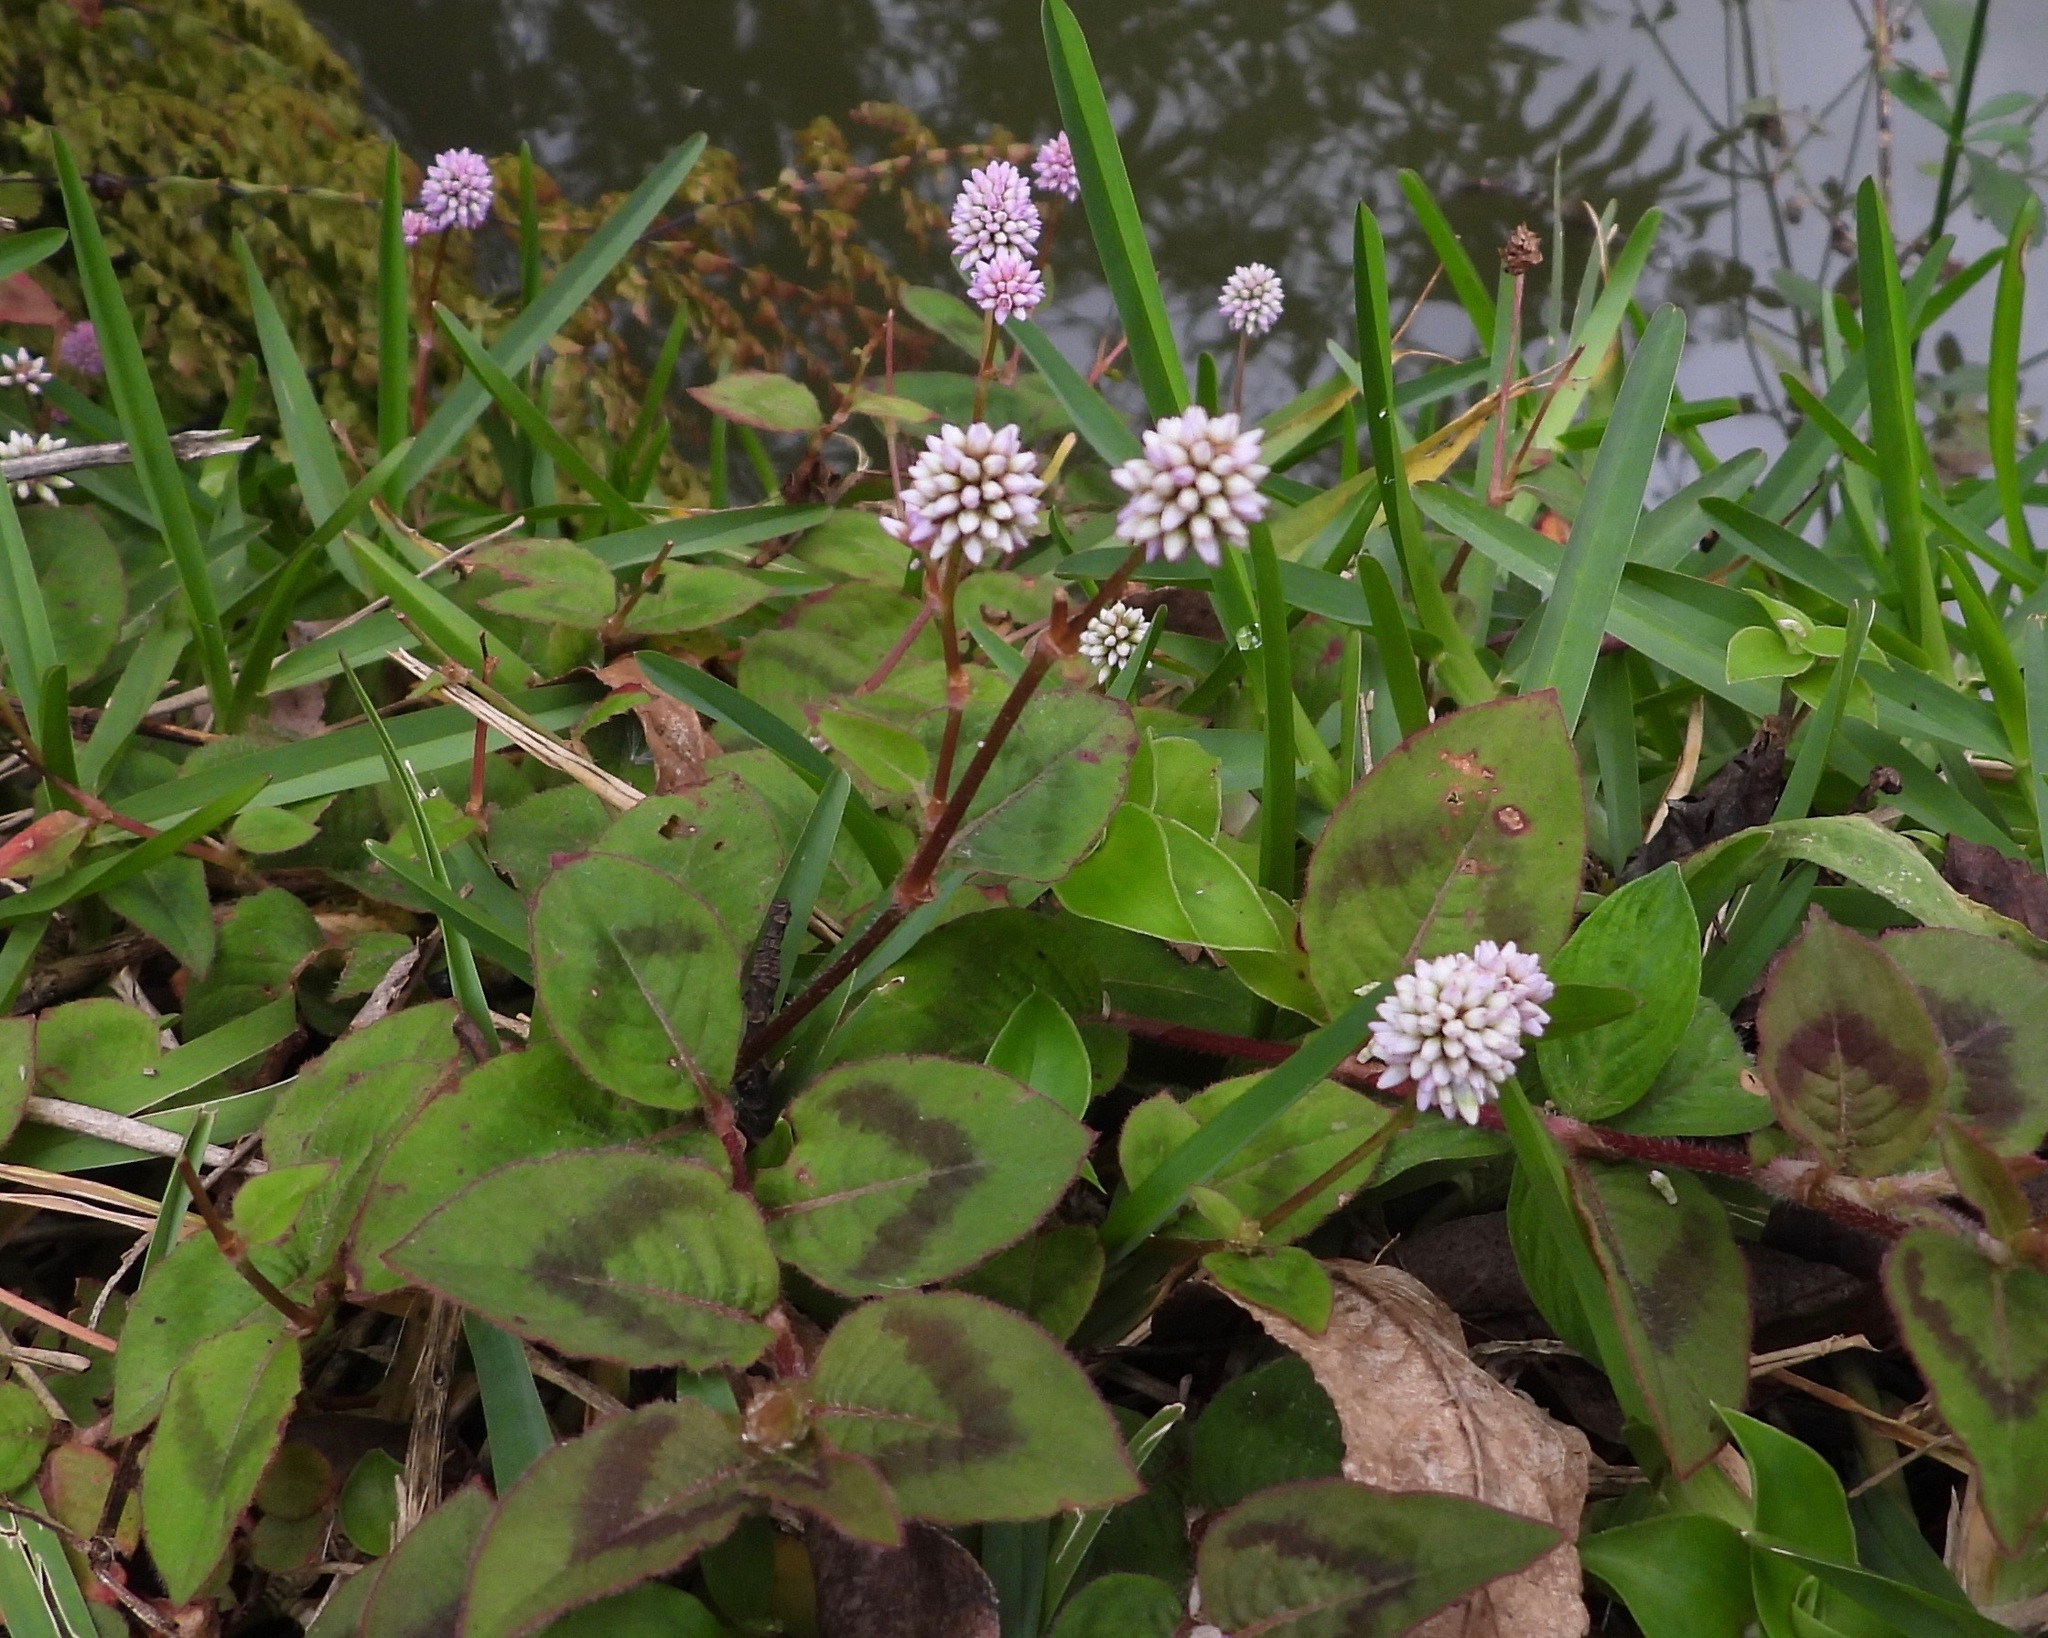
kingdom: Plantae
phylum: Tracheophyta
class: Magnoliopsida
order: Caryophyllales
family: Polygonaceae
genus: Persicaria
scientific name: Persicaria capitata
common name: Pinkhead smartweed
